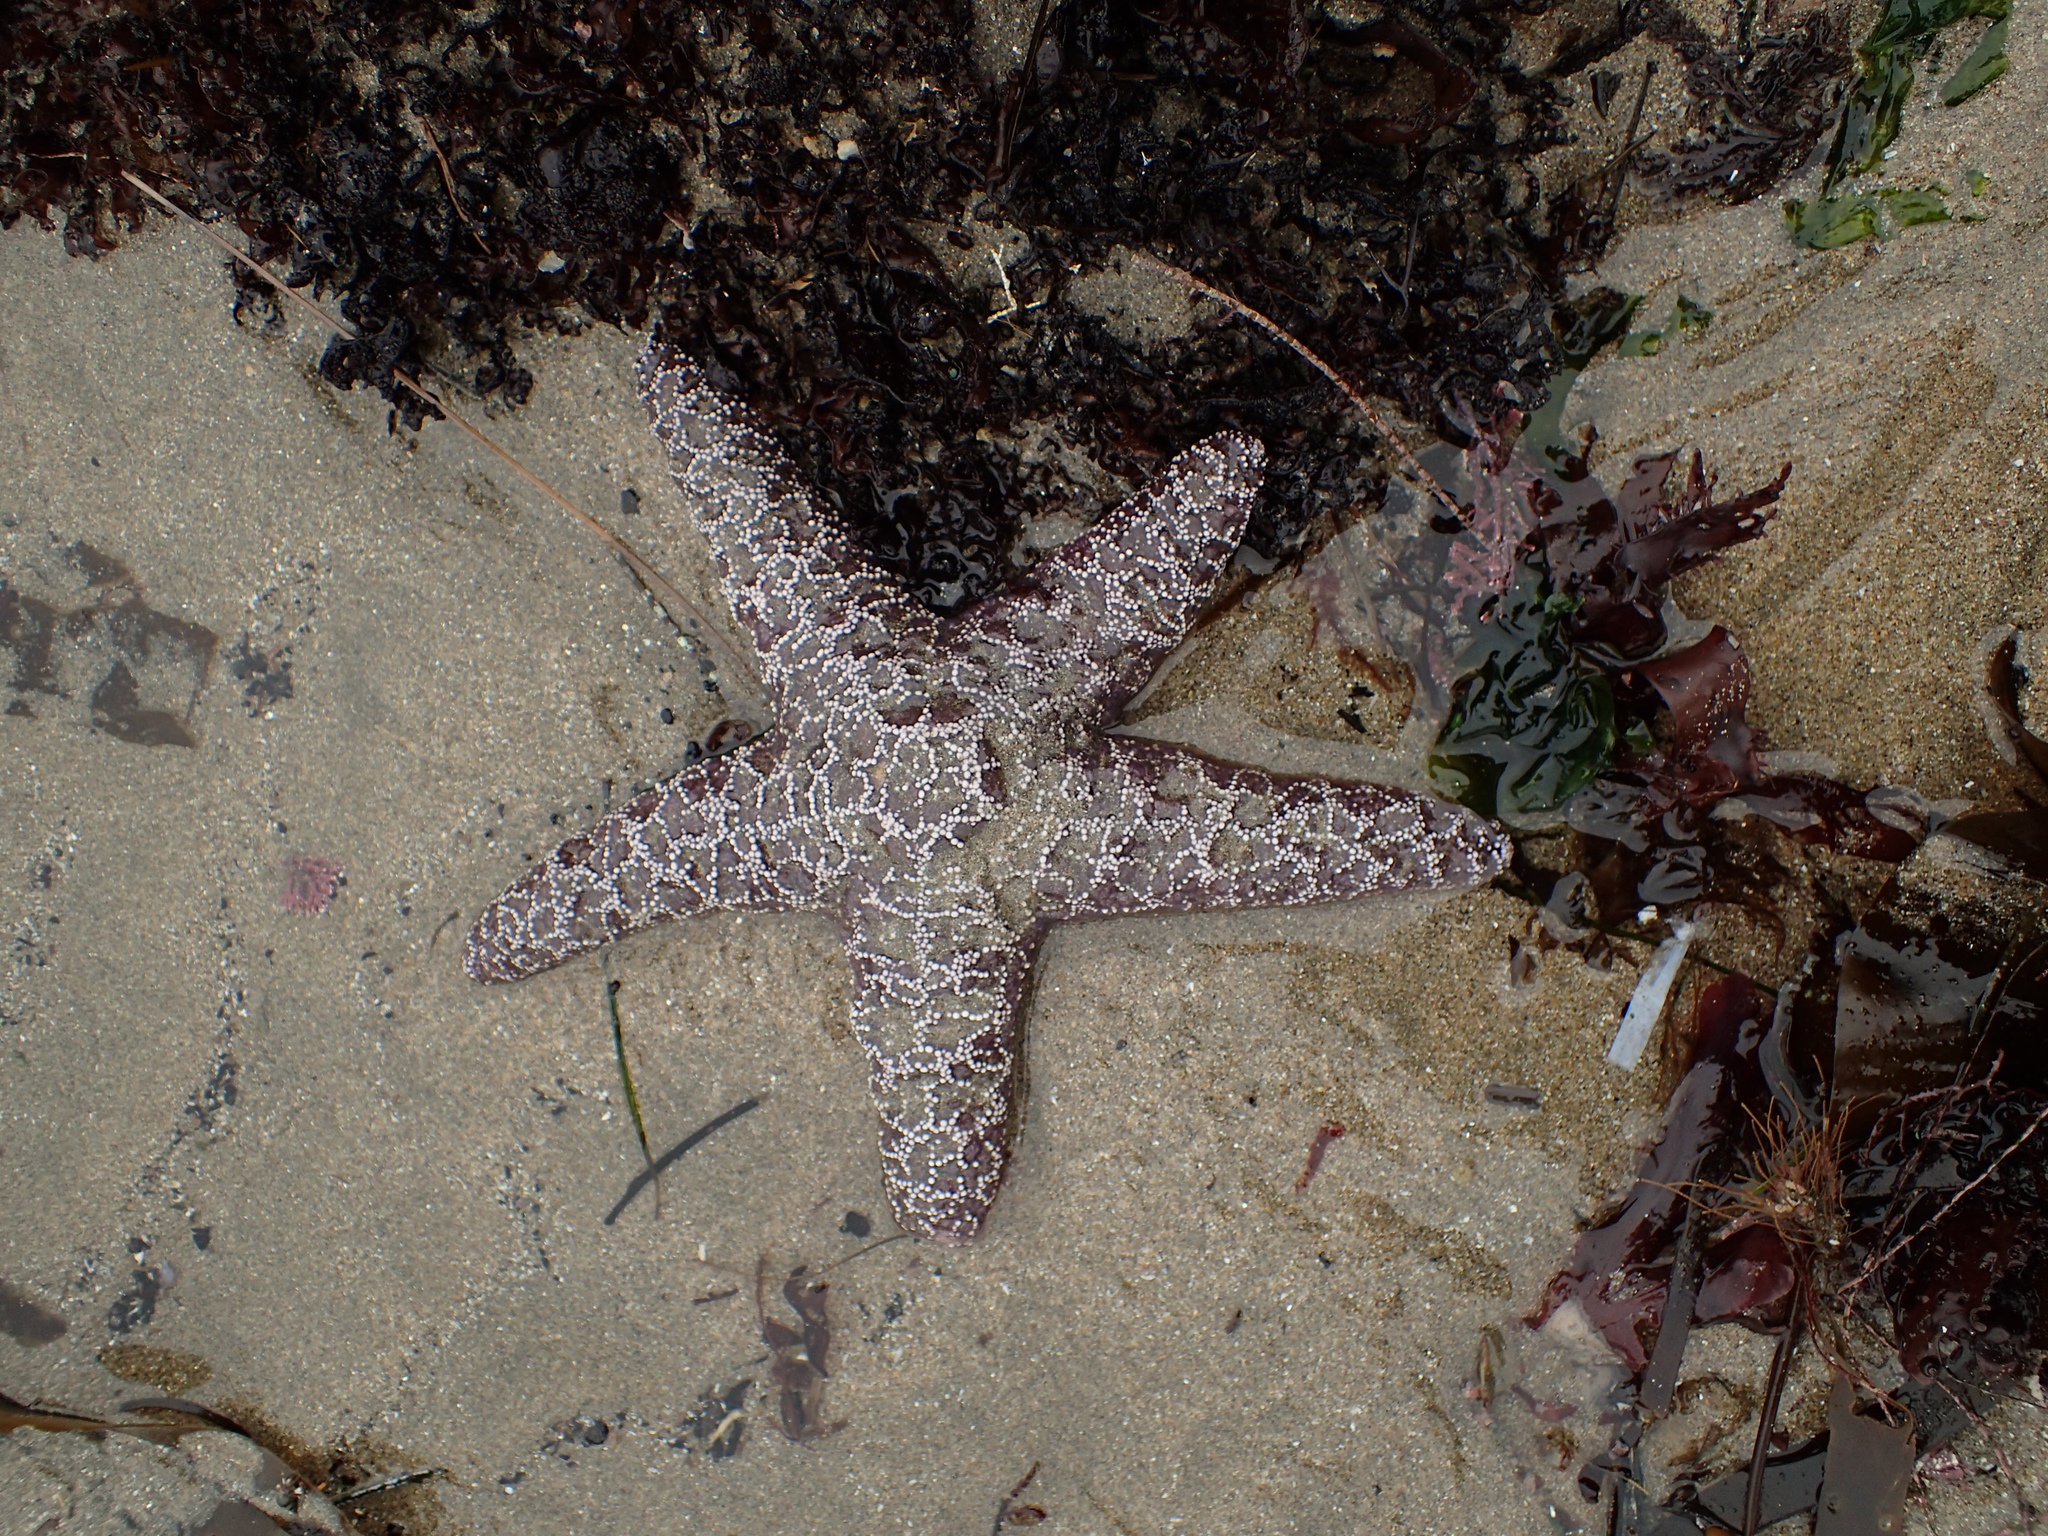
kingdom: Animalia
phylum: Echinodermata
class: Asteroidea
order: Forcipulatida
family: Asteriidae
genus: Pisaster
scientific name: Pisaster ochraceus
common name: Ochre stars
